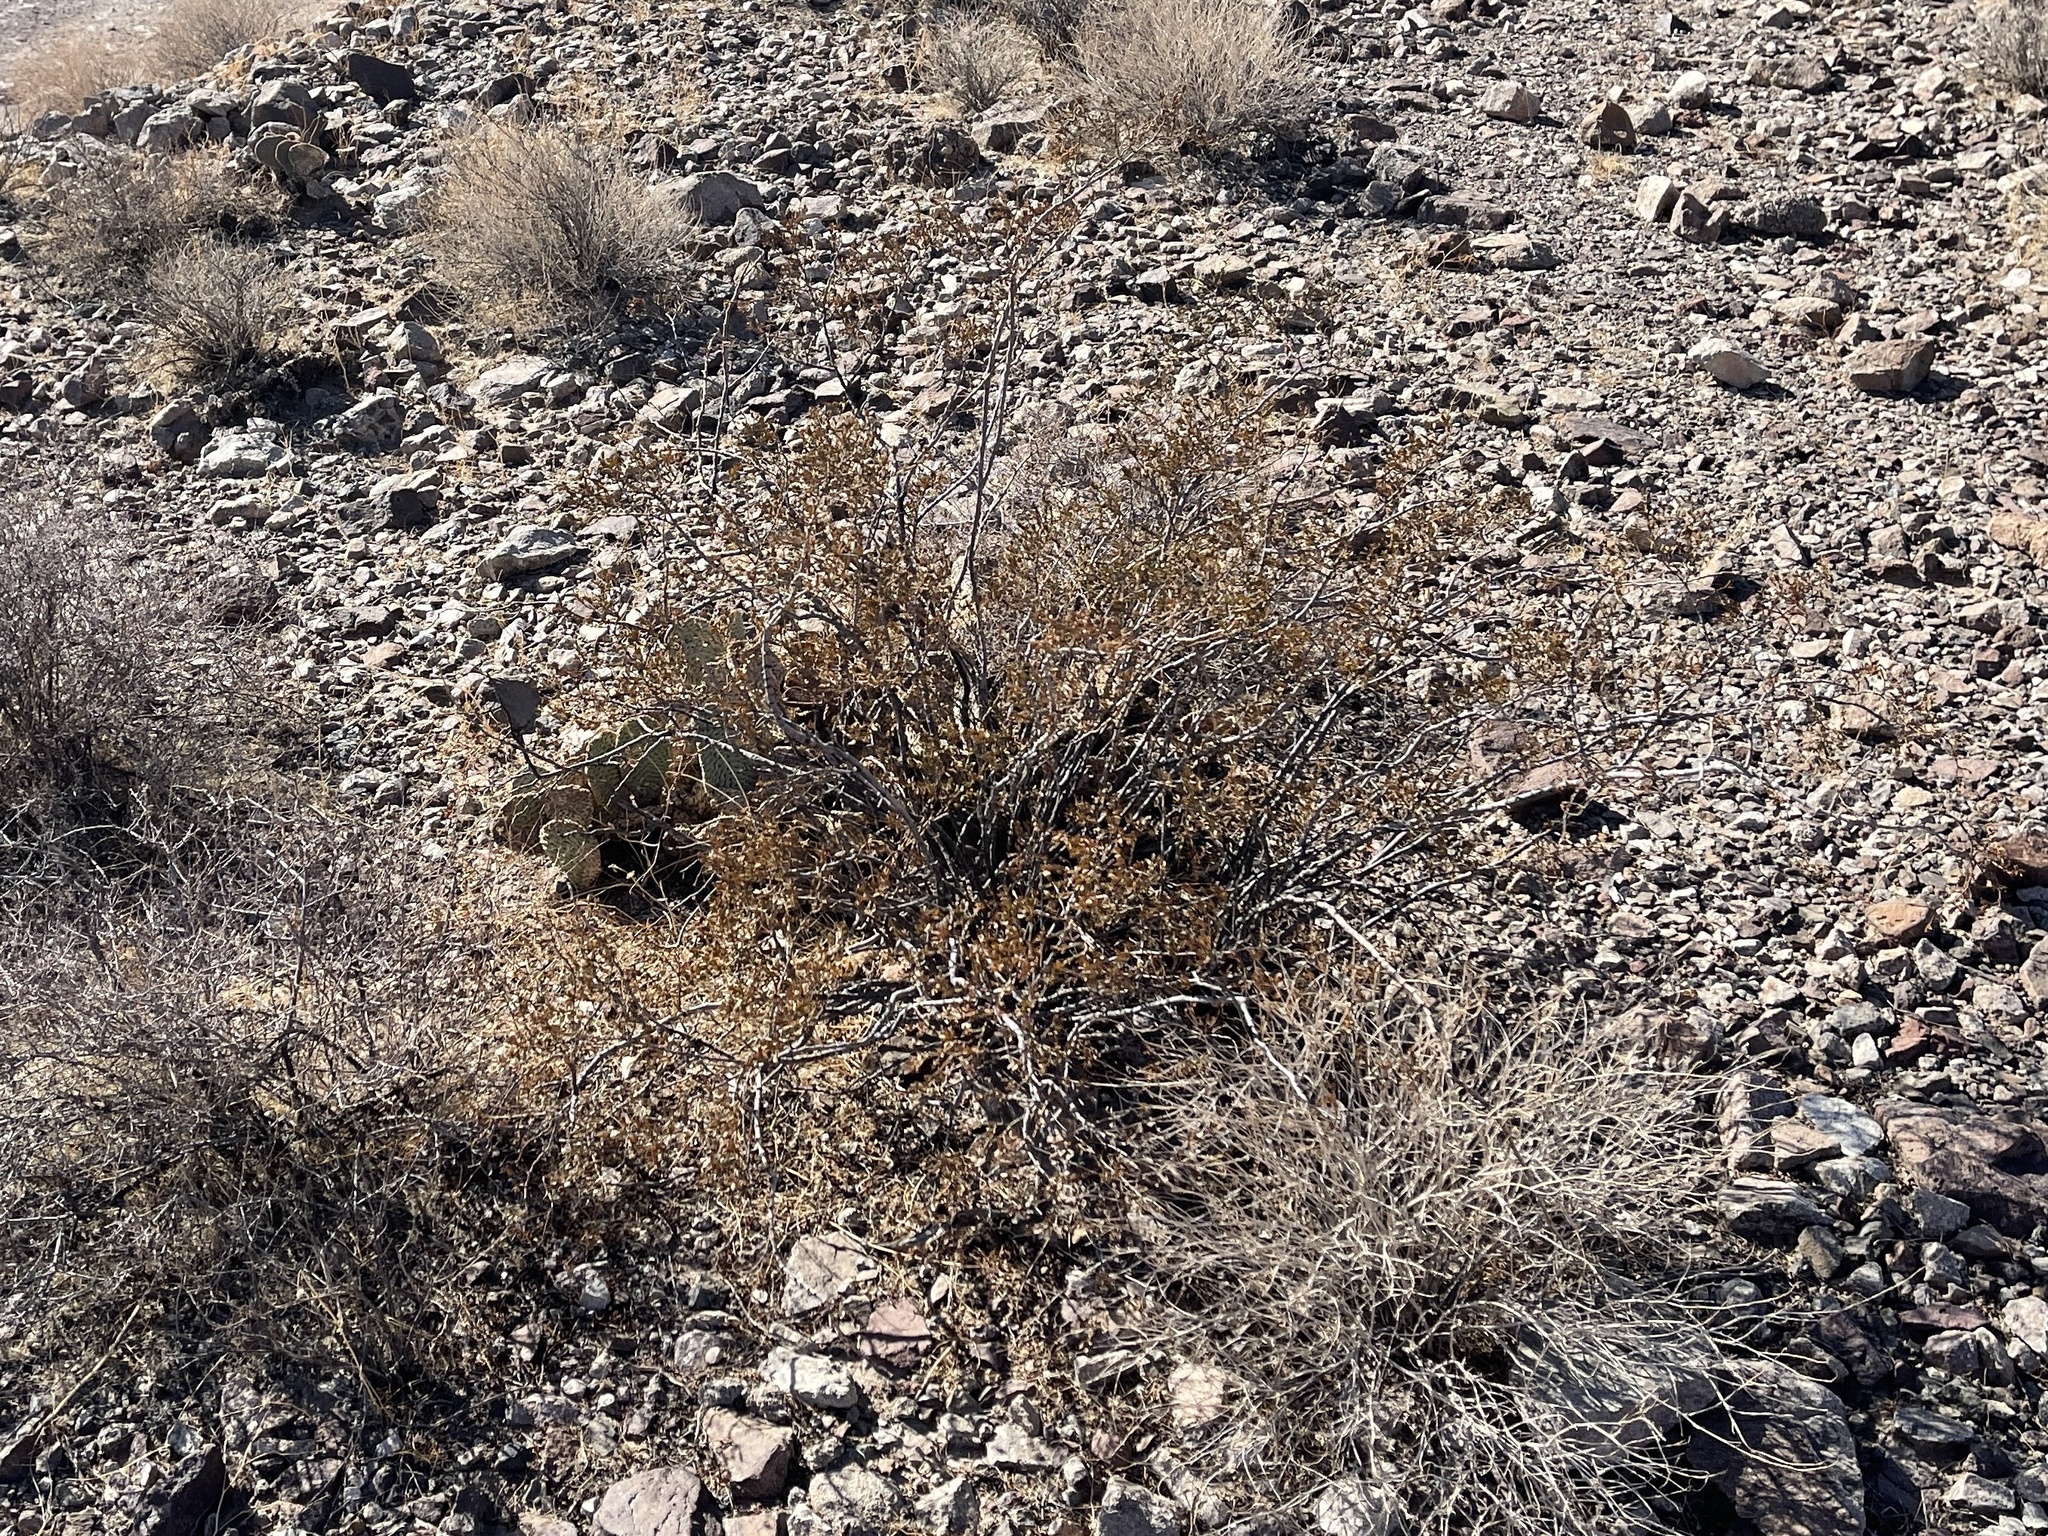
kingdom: Plantae
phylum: Tracheophyta
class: Magnoliopsida
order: Zygophyllales
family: Zygophyllaceae
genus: Larrea
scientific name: Larrea tridentata
